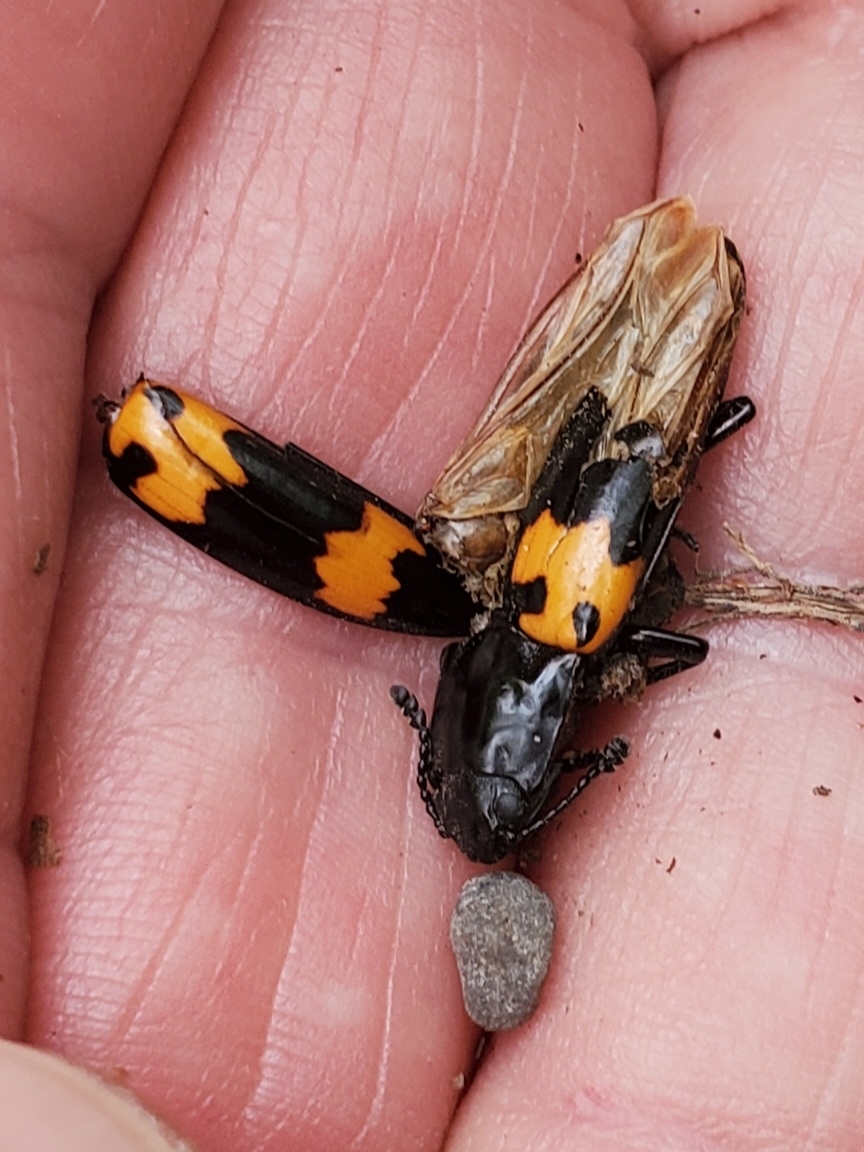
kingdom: Animalia
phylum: Arthropoda
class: Insecta
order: Coleoptera
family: Erotylidae
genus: Megalodacne
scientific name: Megalodacne heros
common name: Pleasing fungus beetle
